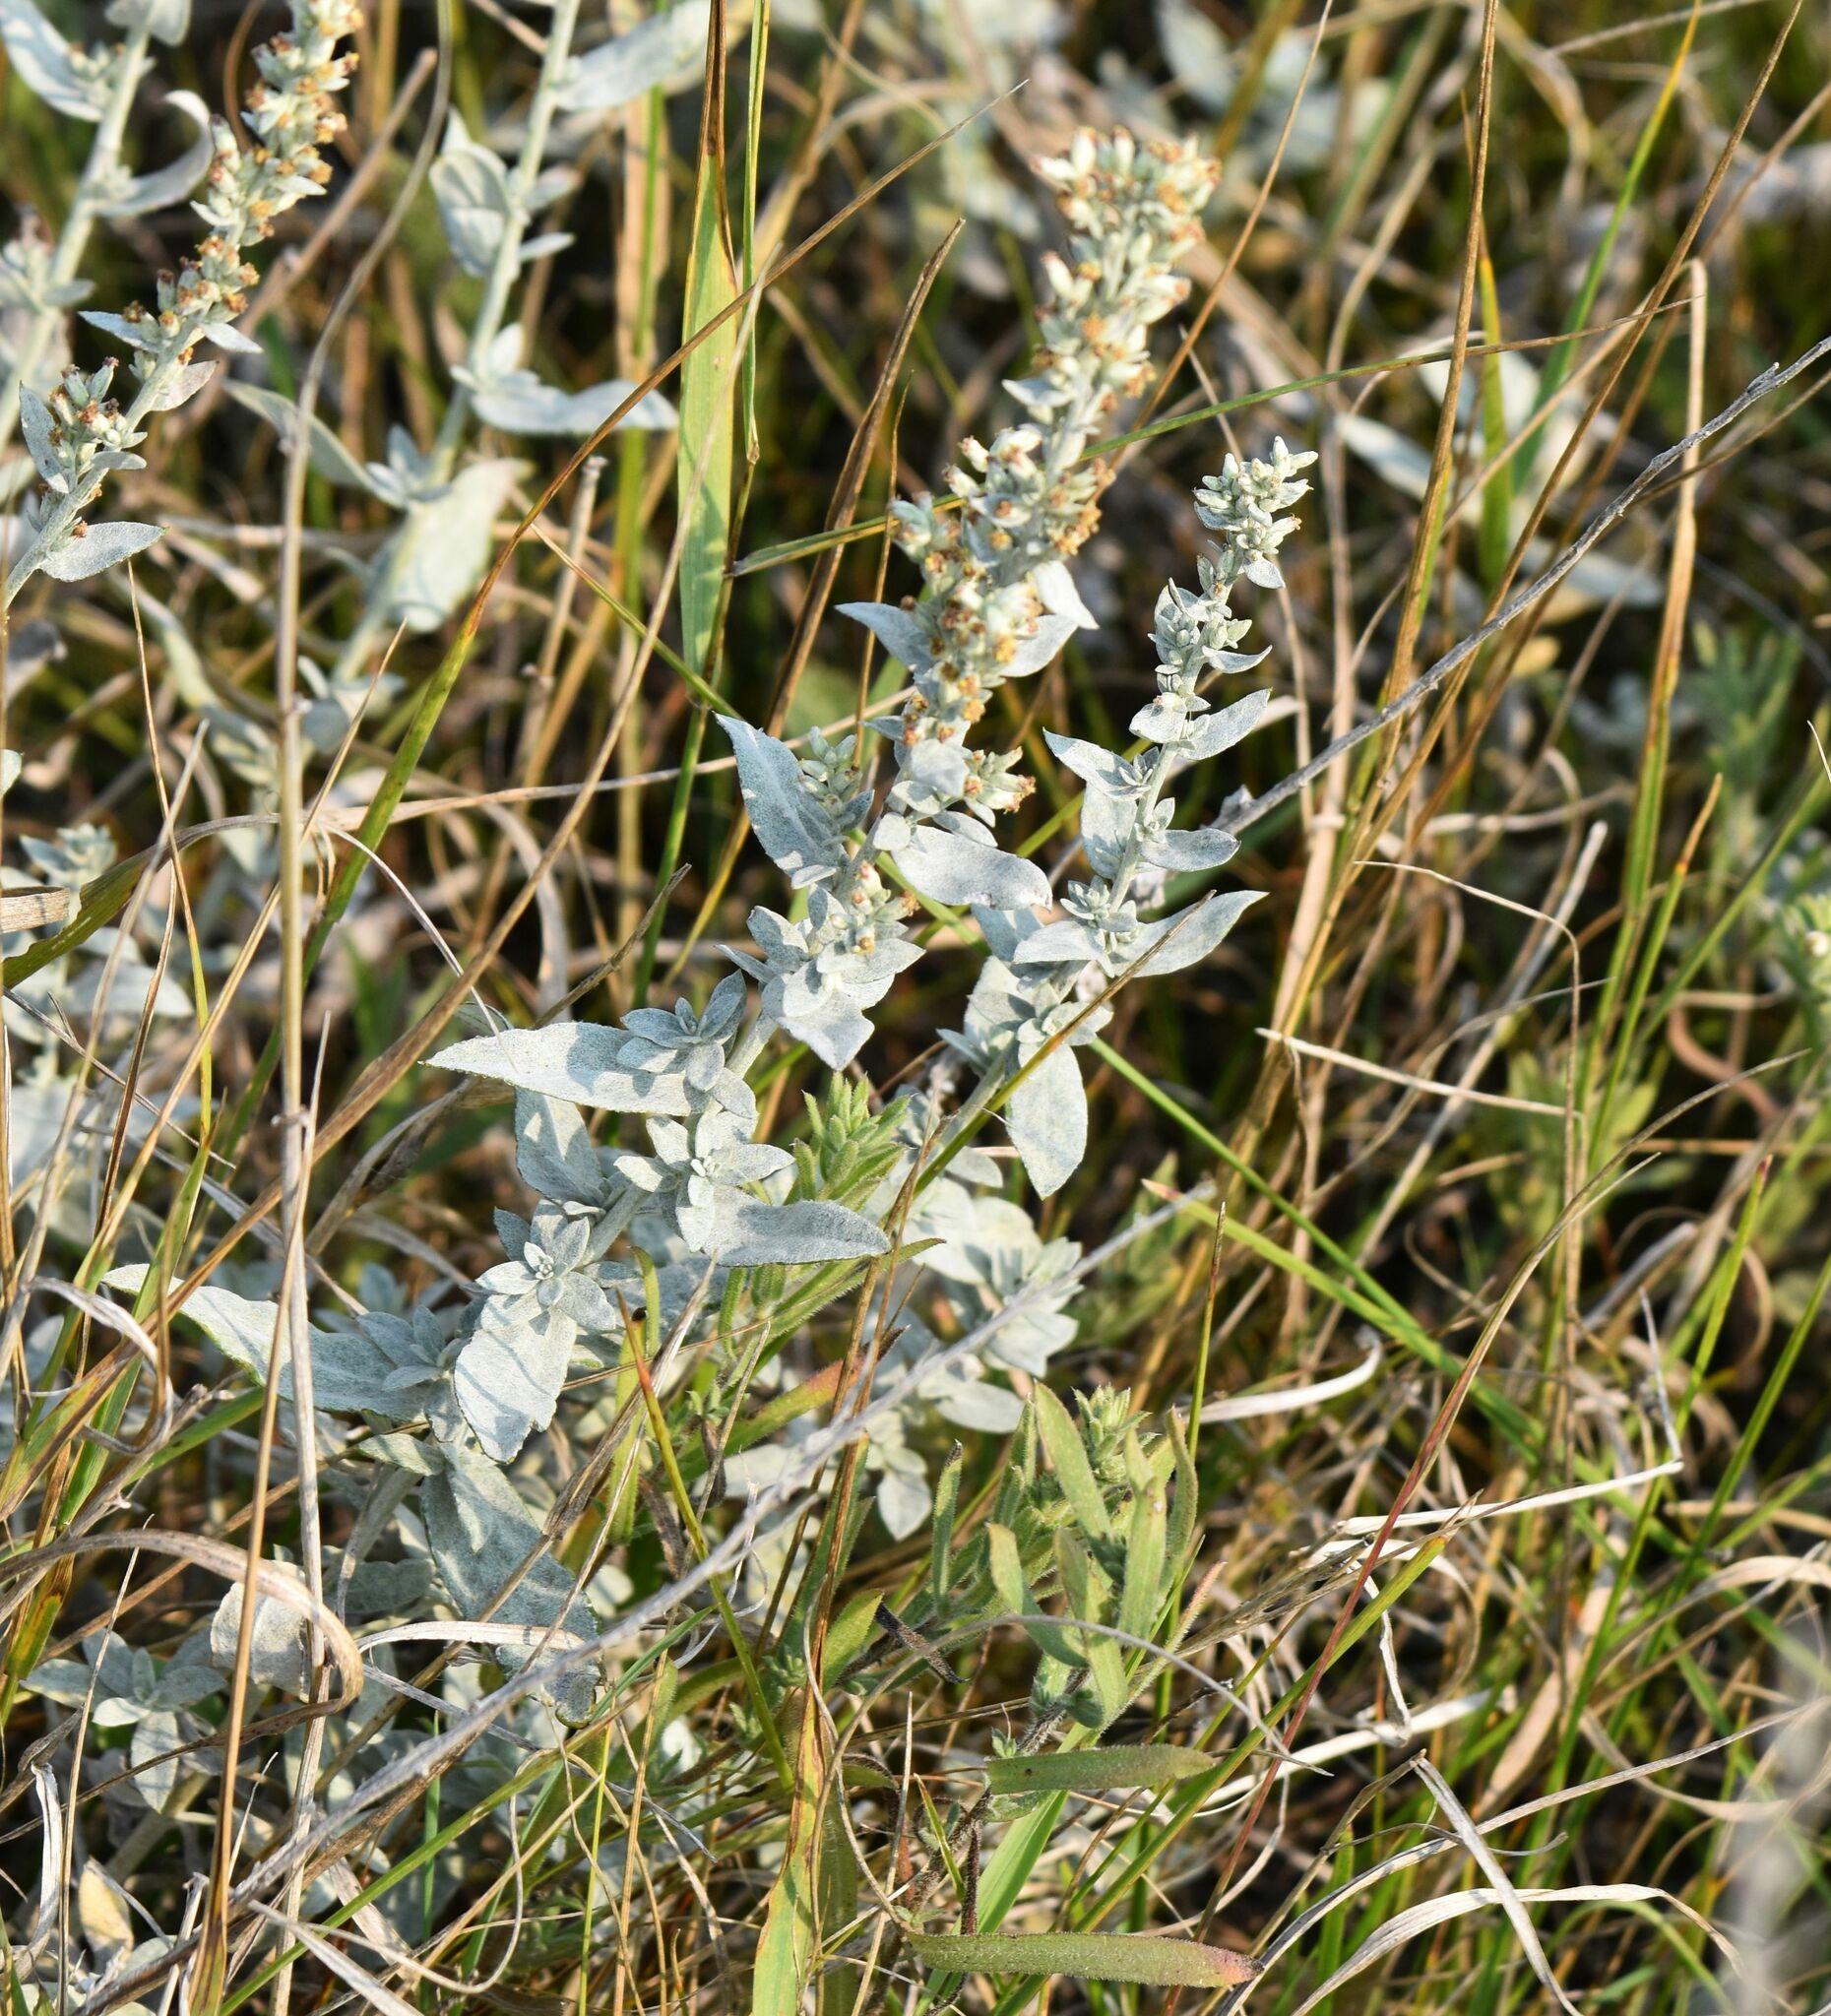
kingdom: Plantae
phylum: Tracheophyta
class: Magnoliopsida
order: Asterales
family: Asteraceae
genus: Artemisia
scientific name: Artemisia ludoviciana
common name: Western mugwort
